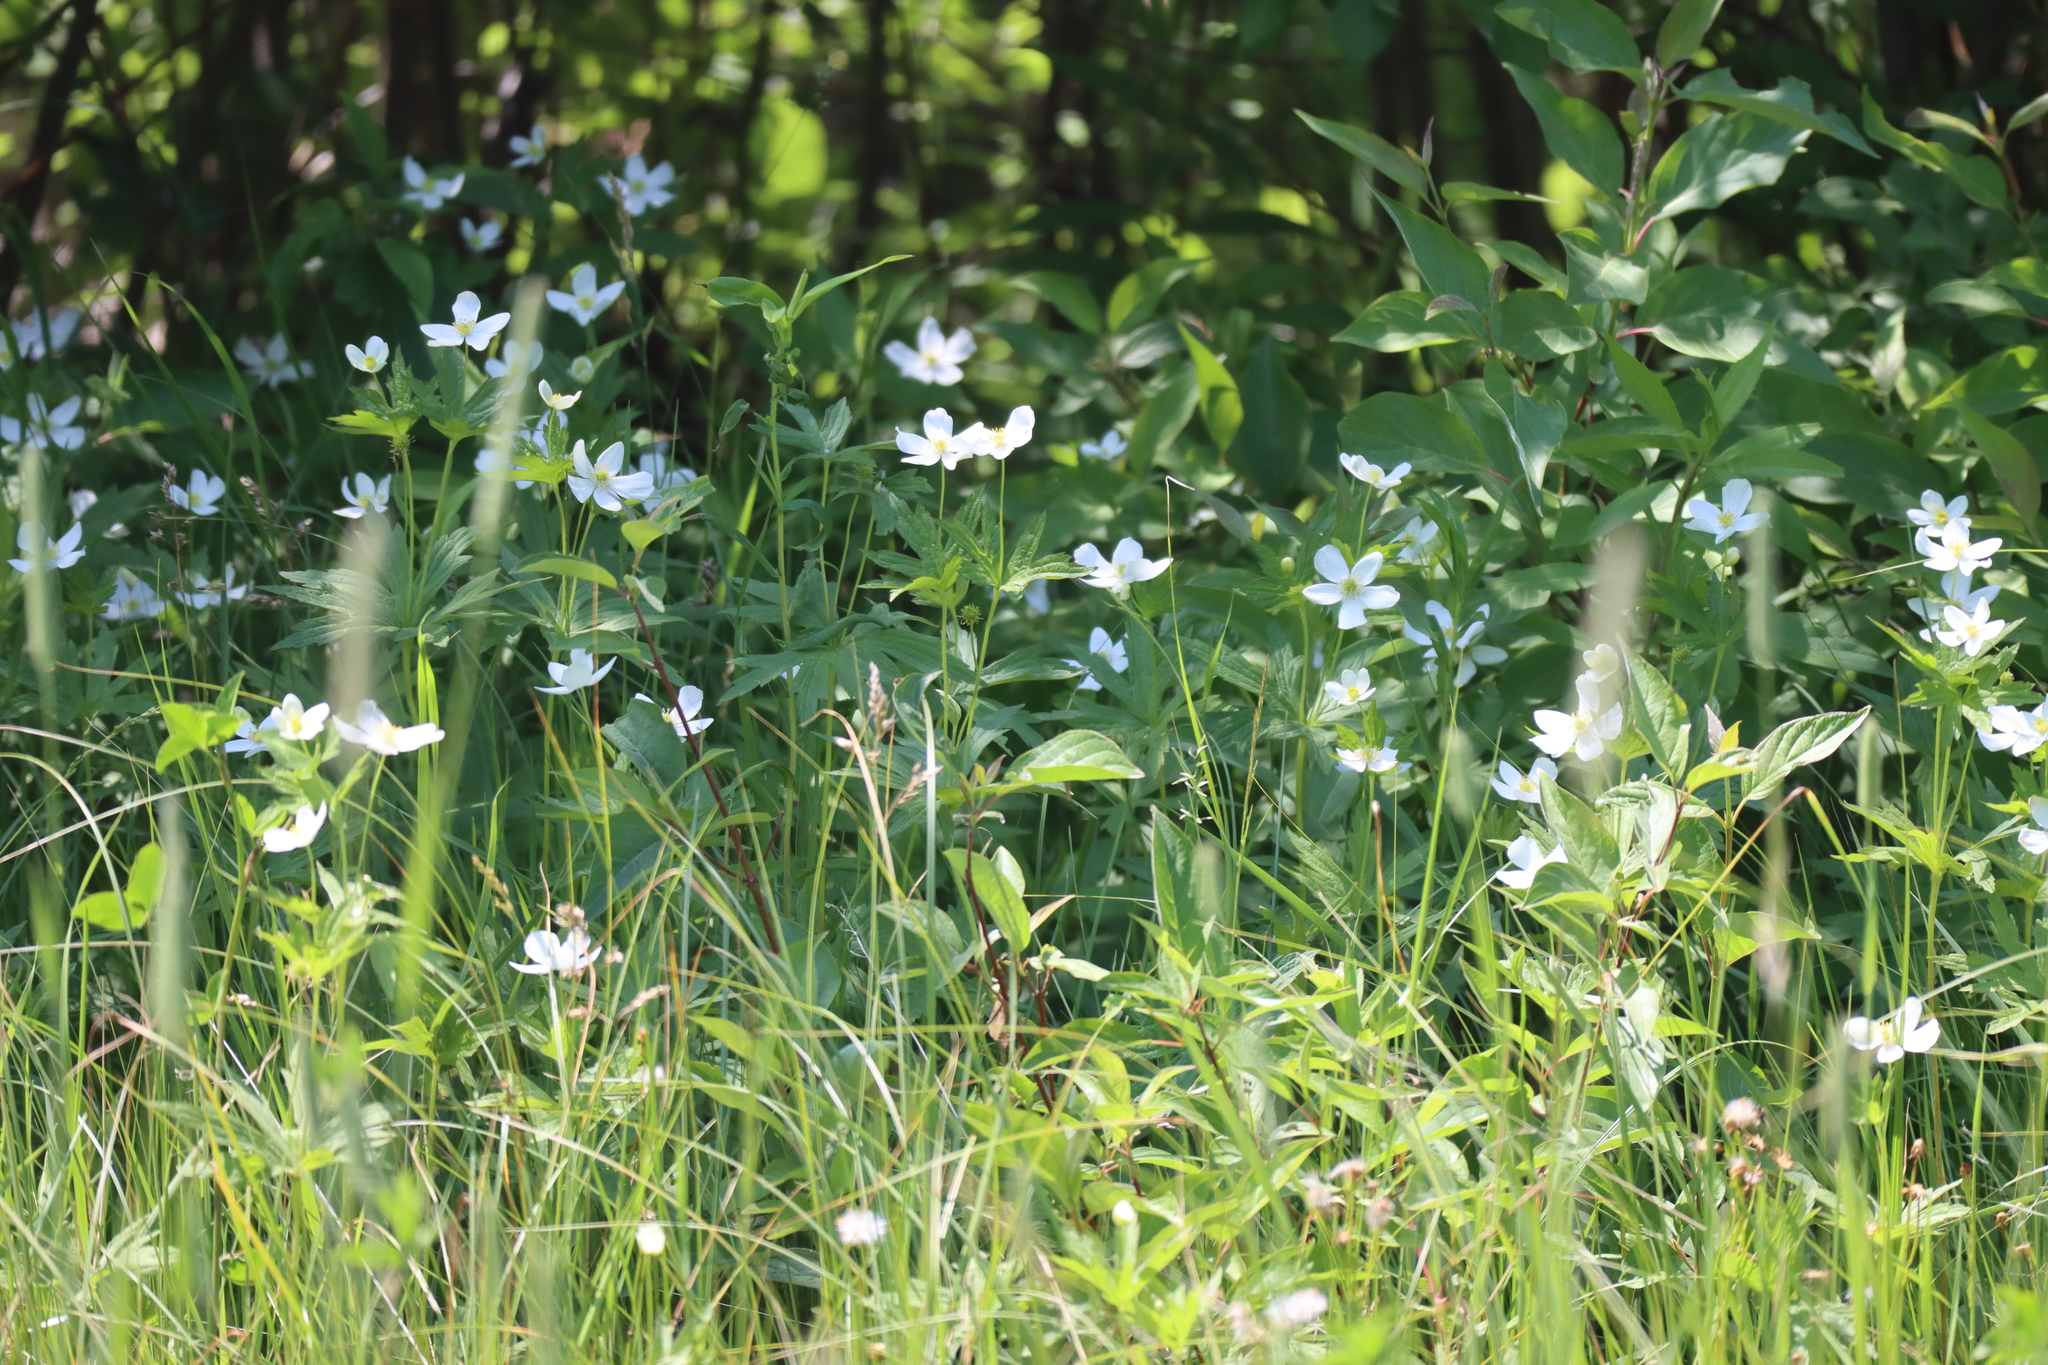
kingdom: Plantae
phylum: Tracheophyta
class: Magnoliopsida
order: Ranunculales
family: Ranunculaceae
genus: Anemonastrum
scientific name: Anemonastrum canadense
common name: Canada anemone
